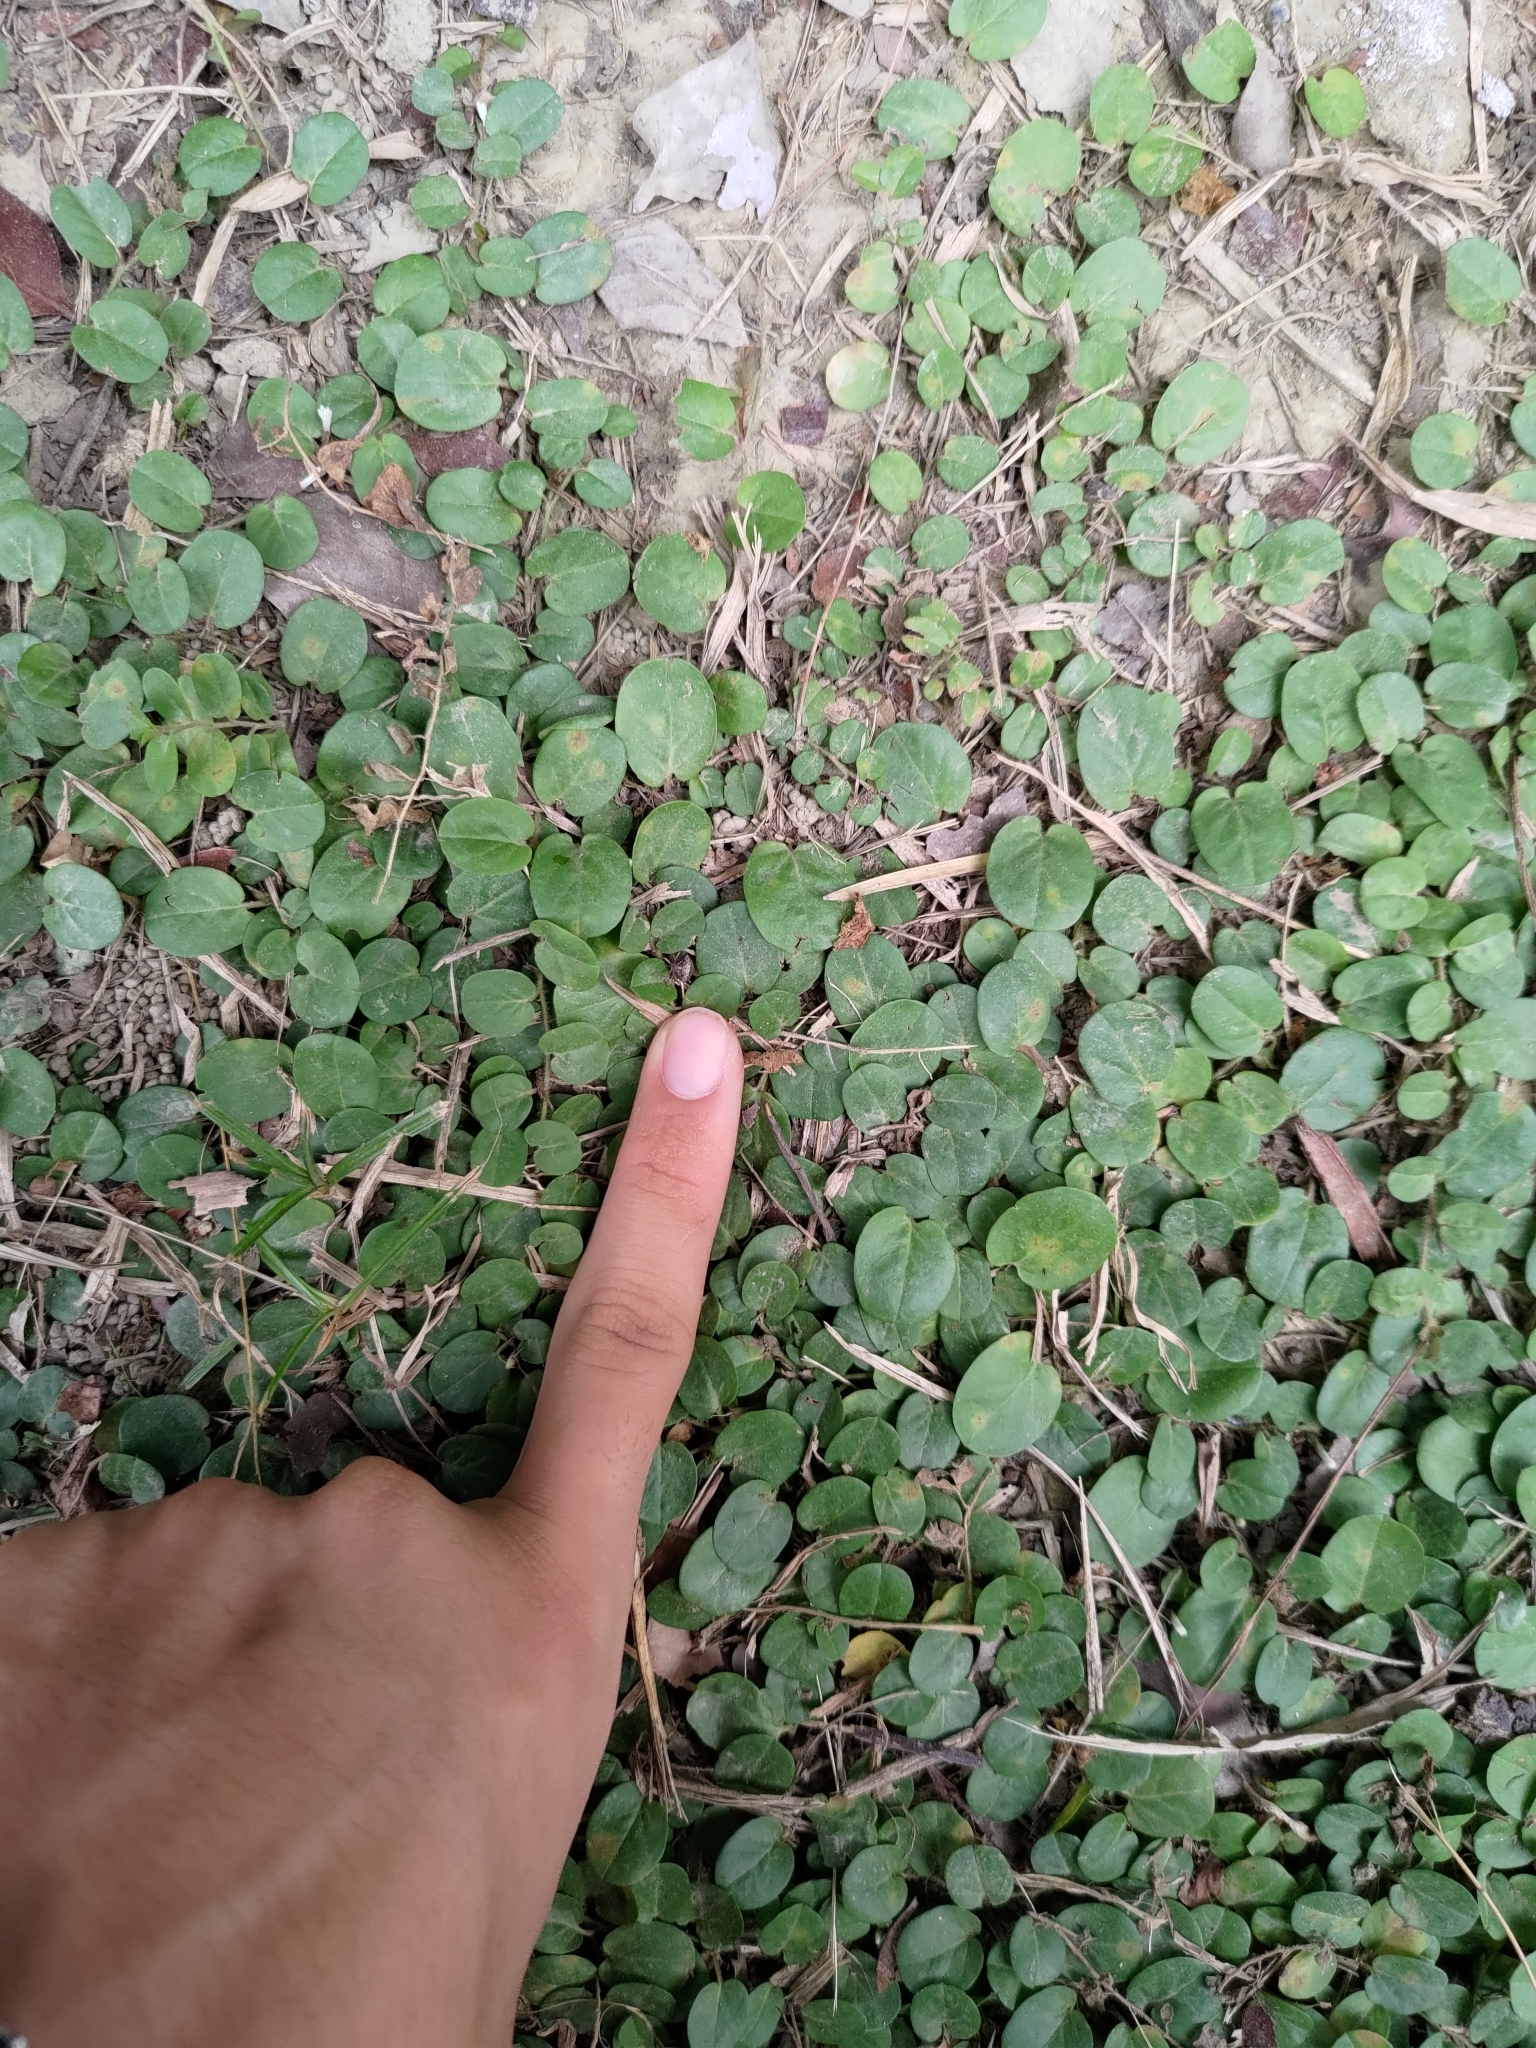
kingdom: Plantae
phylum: Tracheophyta
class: Magnoliopsida
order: Solanales
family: Convolvulaceae
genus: Evolvulus
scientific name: Evolvulus nummularius
